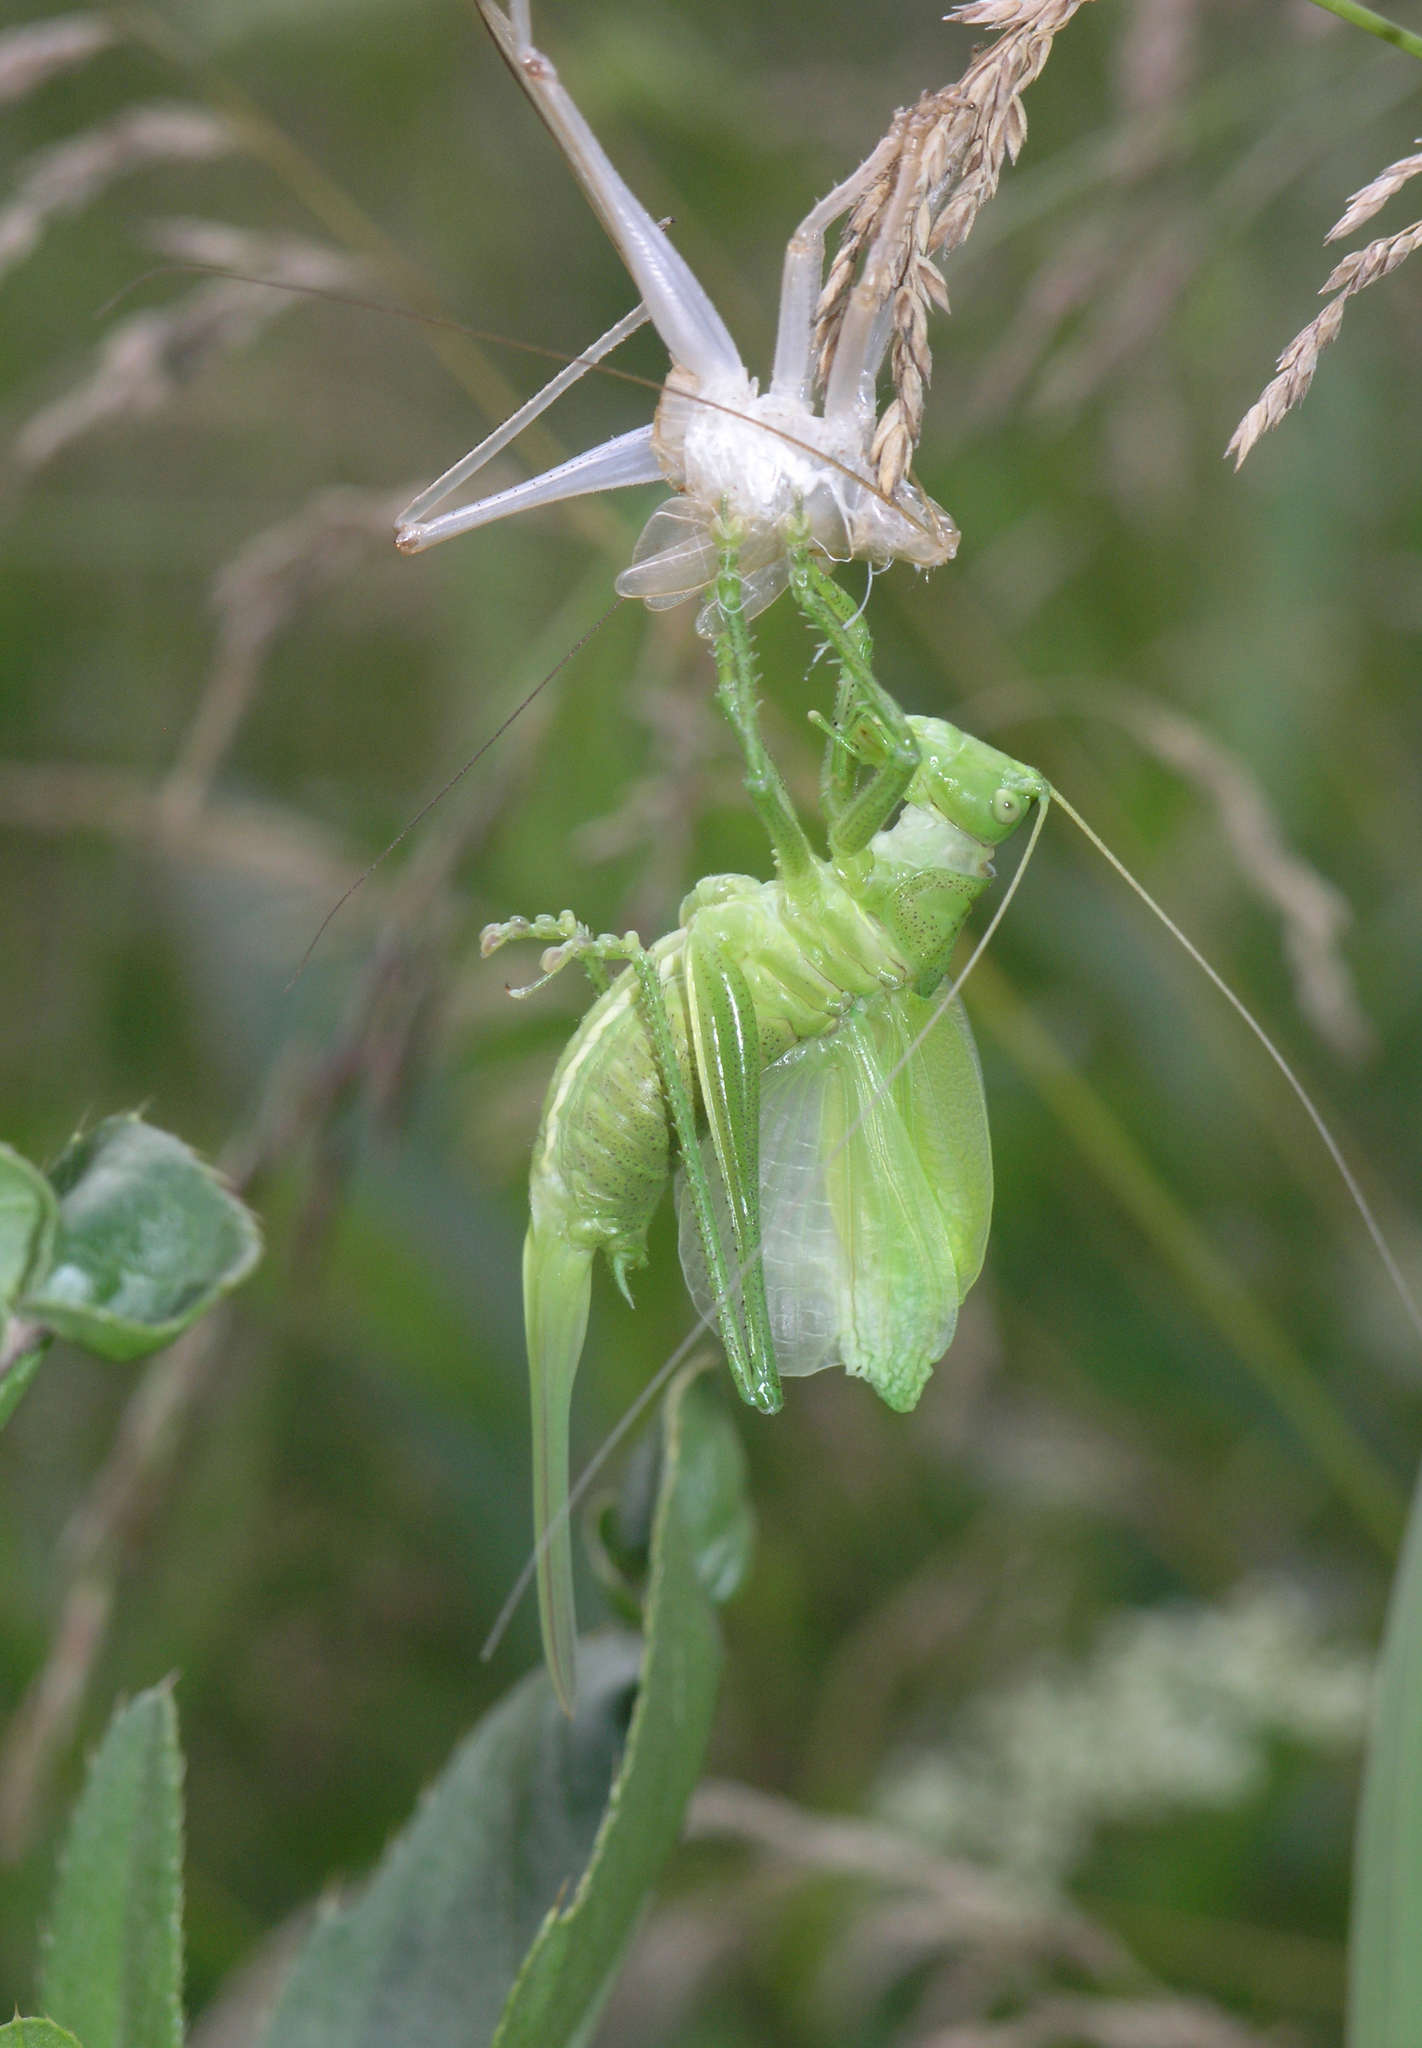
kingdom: Animalia
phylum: Arthropoda
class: Insecta
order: Orthoptera
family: Tettigoniidae
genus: Tettigonia
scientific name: Tettigonia cantans
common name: Upland green bush-cricket
